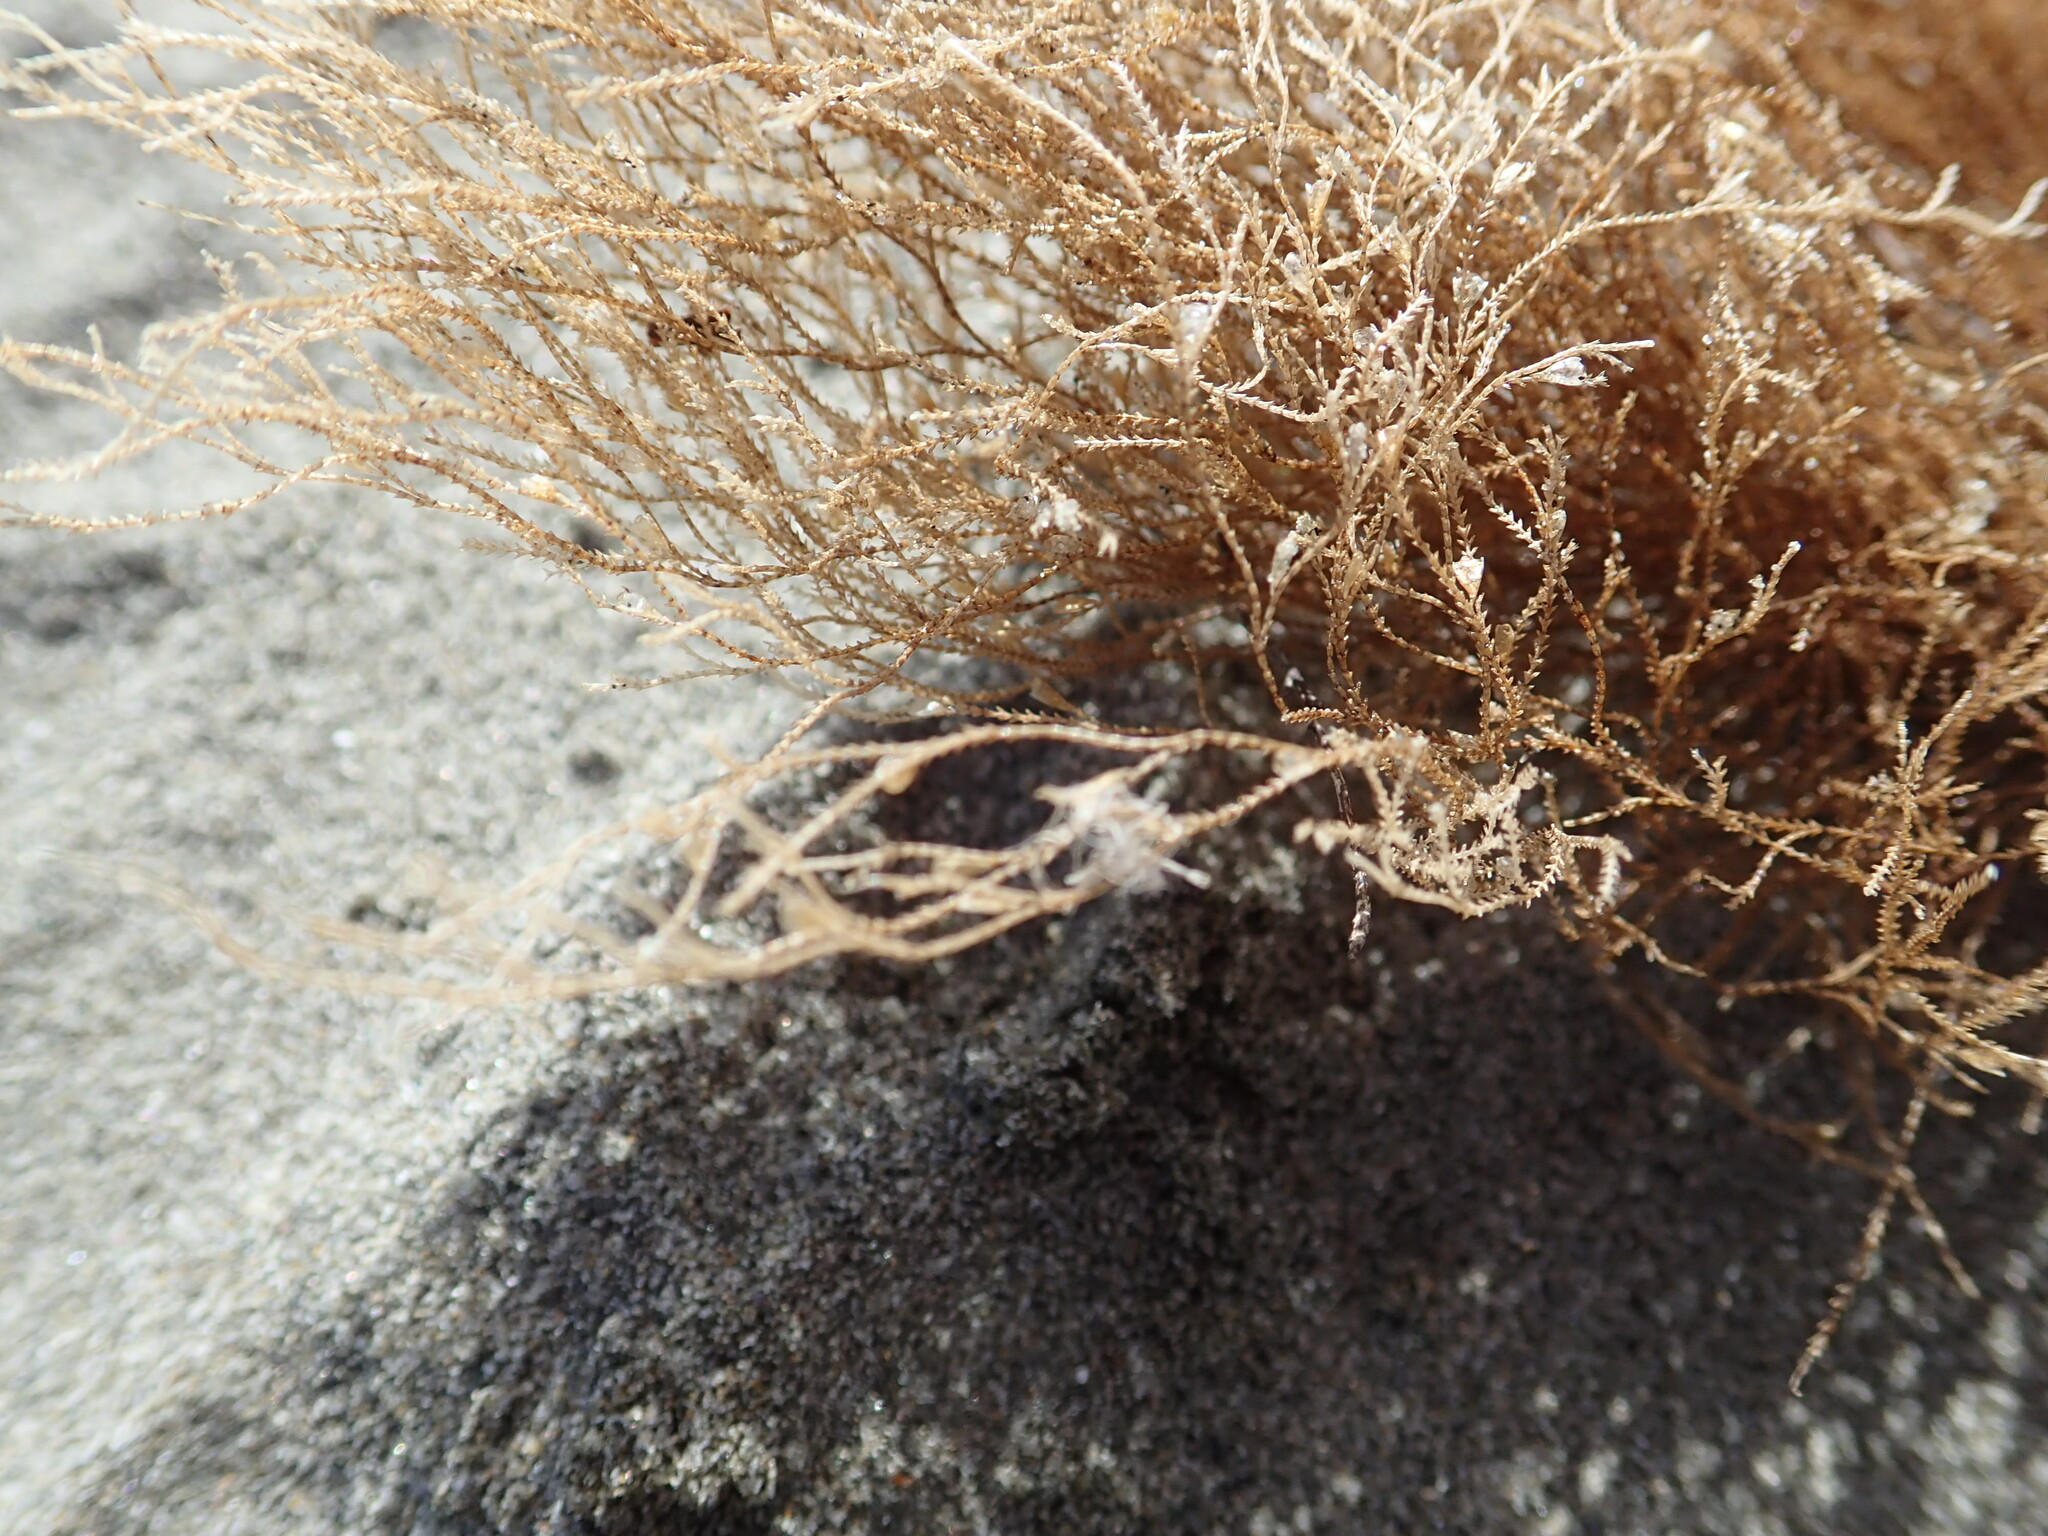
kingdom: Animalia
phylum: Cnidaria
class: Hydrozoa
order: Leptothecata
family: Sertulariidae
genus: Amphisbetia
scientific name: Amphisbetia bispinosa
